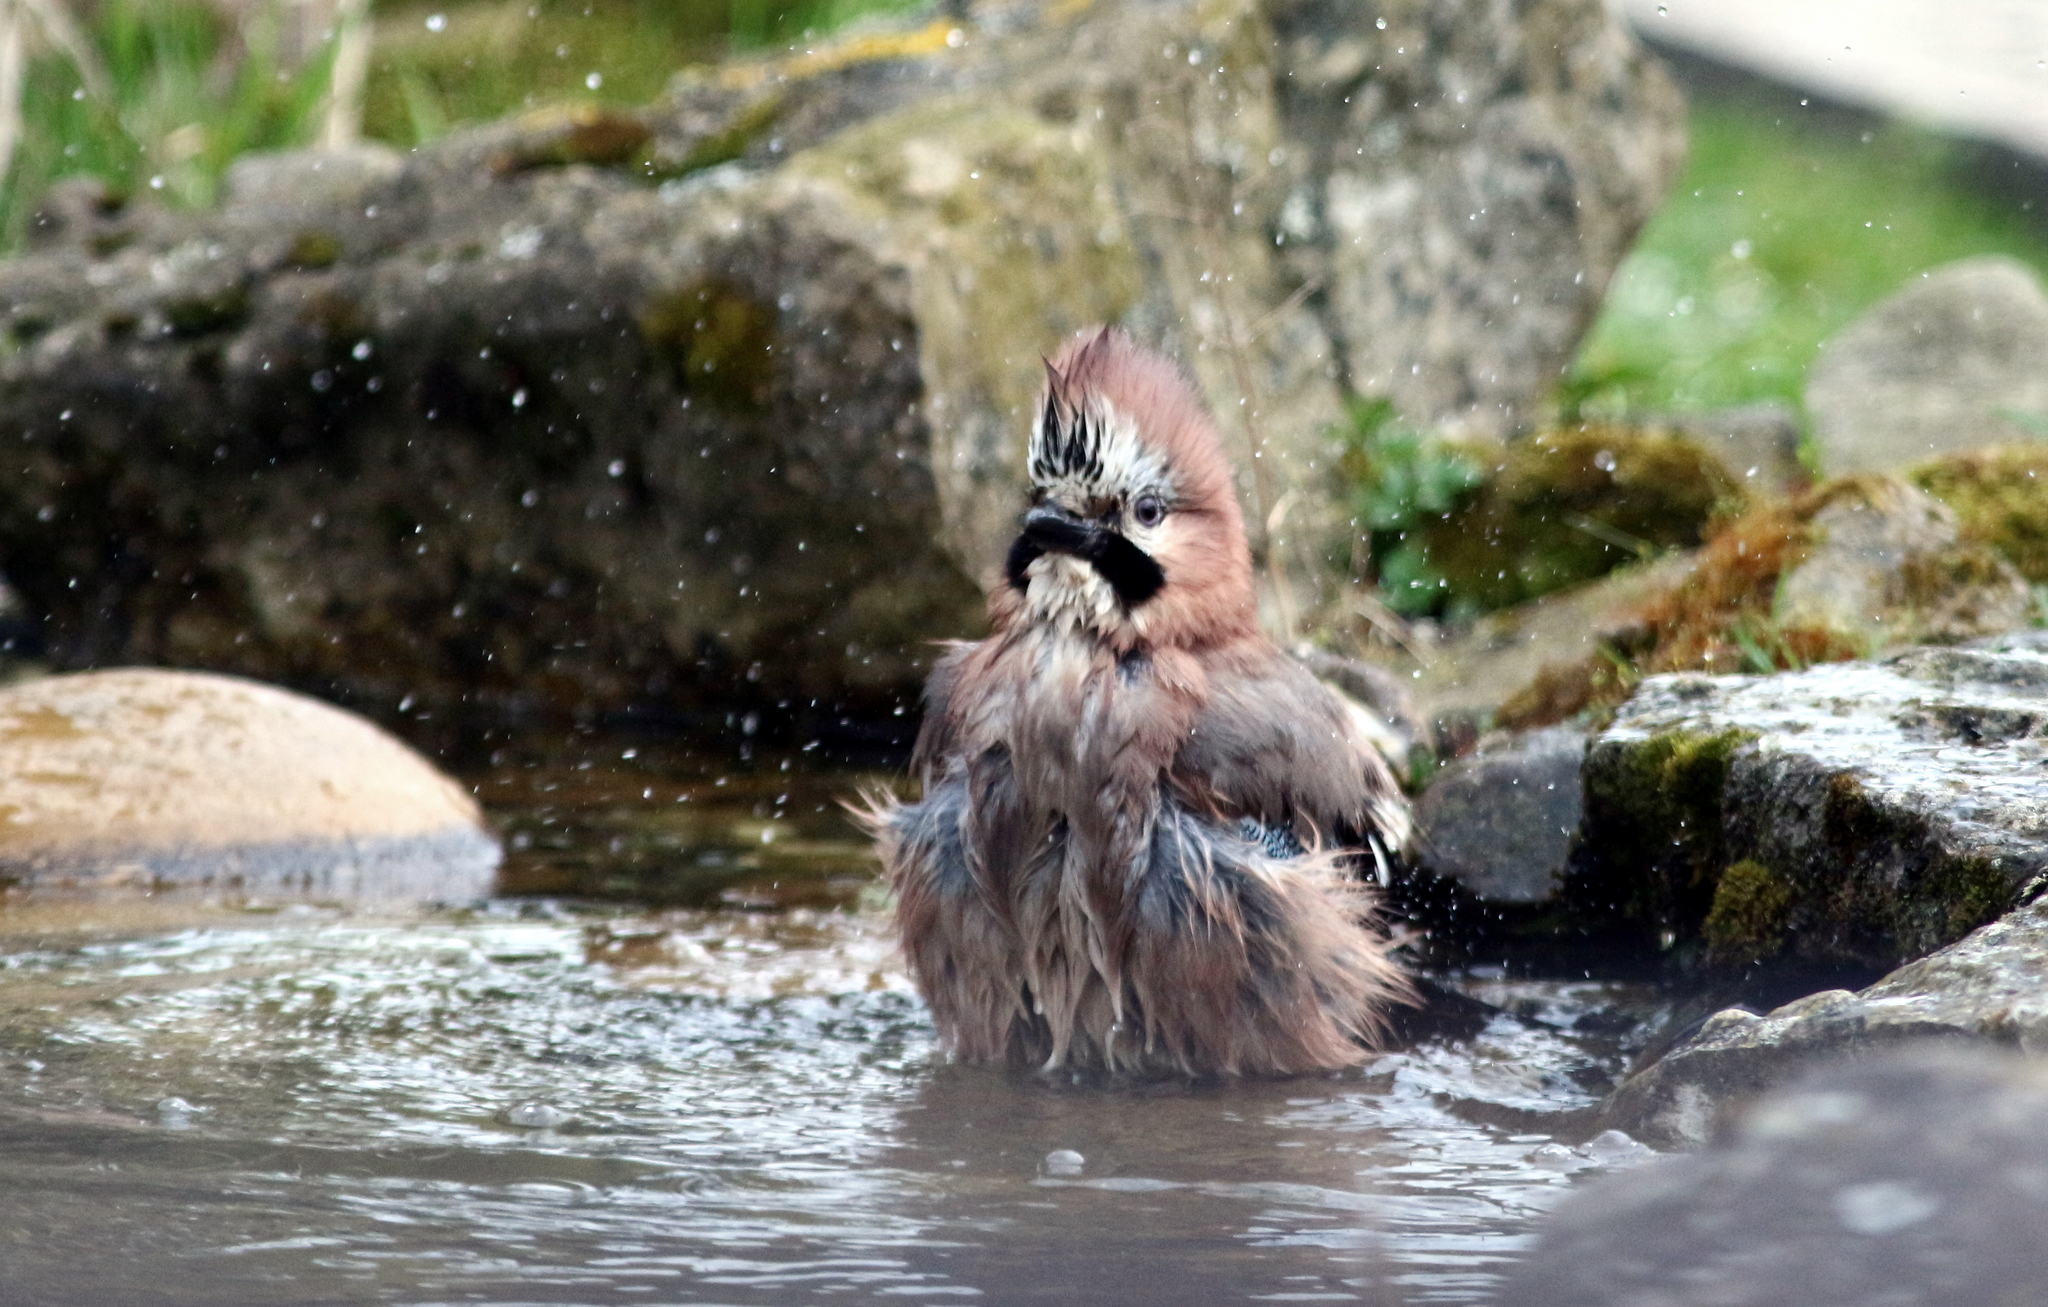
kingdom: Animalia
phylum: Chordata
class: Aves
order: Passeriformes
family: Corvidae
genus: Garrulus
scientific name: Garrulus glandarius
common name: Eurasian jay
